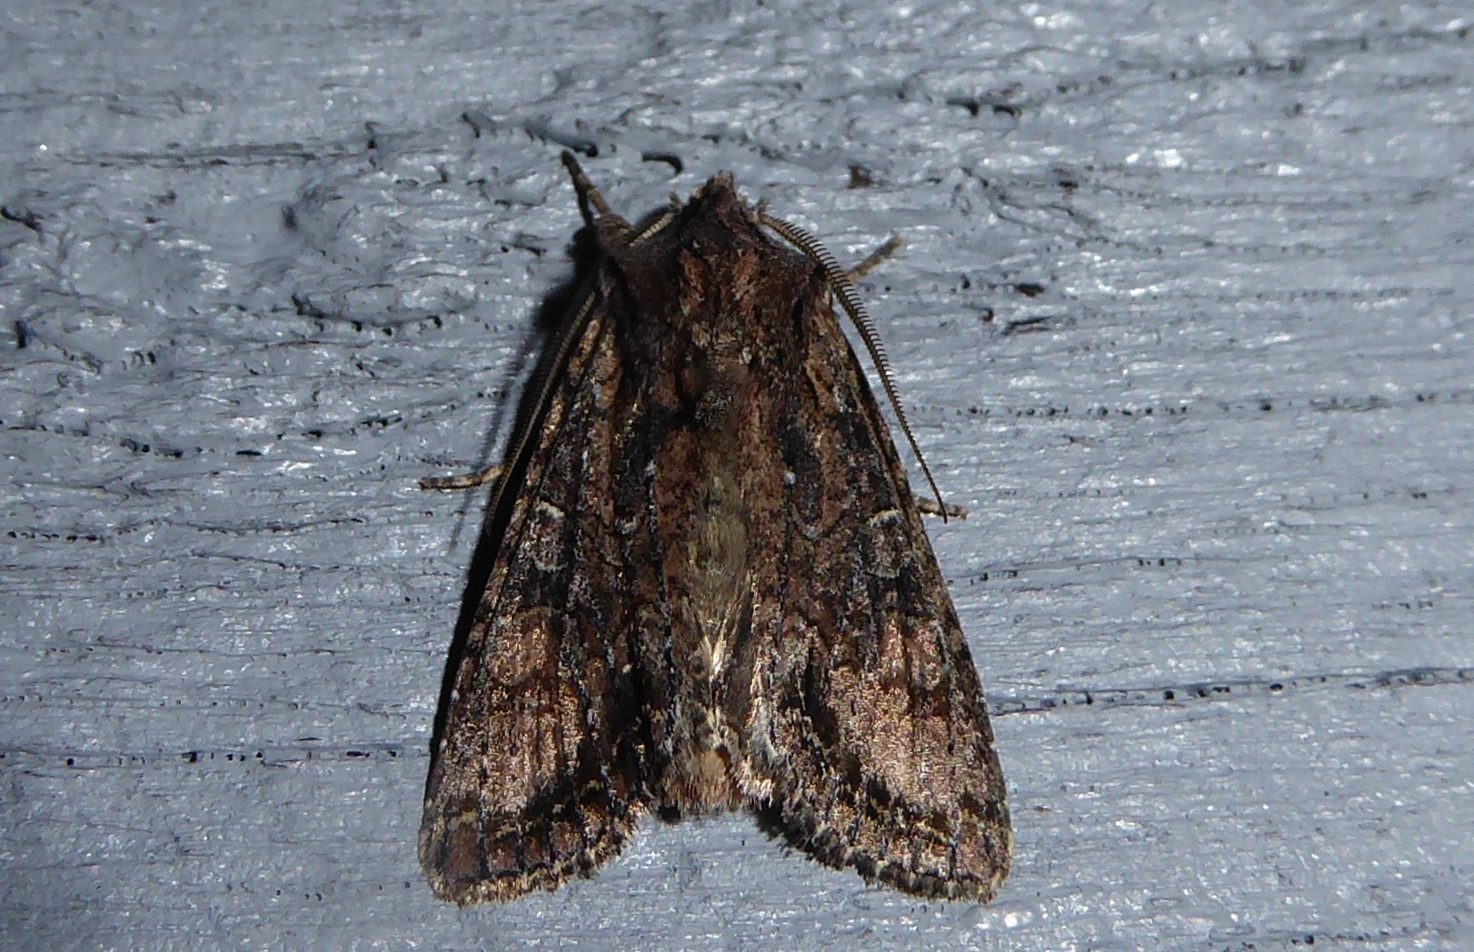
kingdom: Animalia
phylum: Arthropoda
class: Insecta
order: Lepidoptera
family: Noctuidae
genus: Ichneutica
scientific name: Ichneutica mutans
